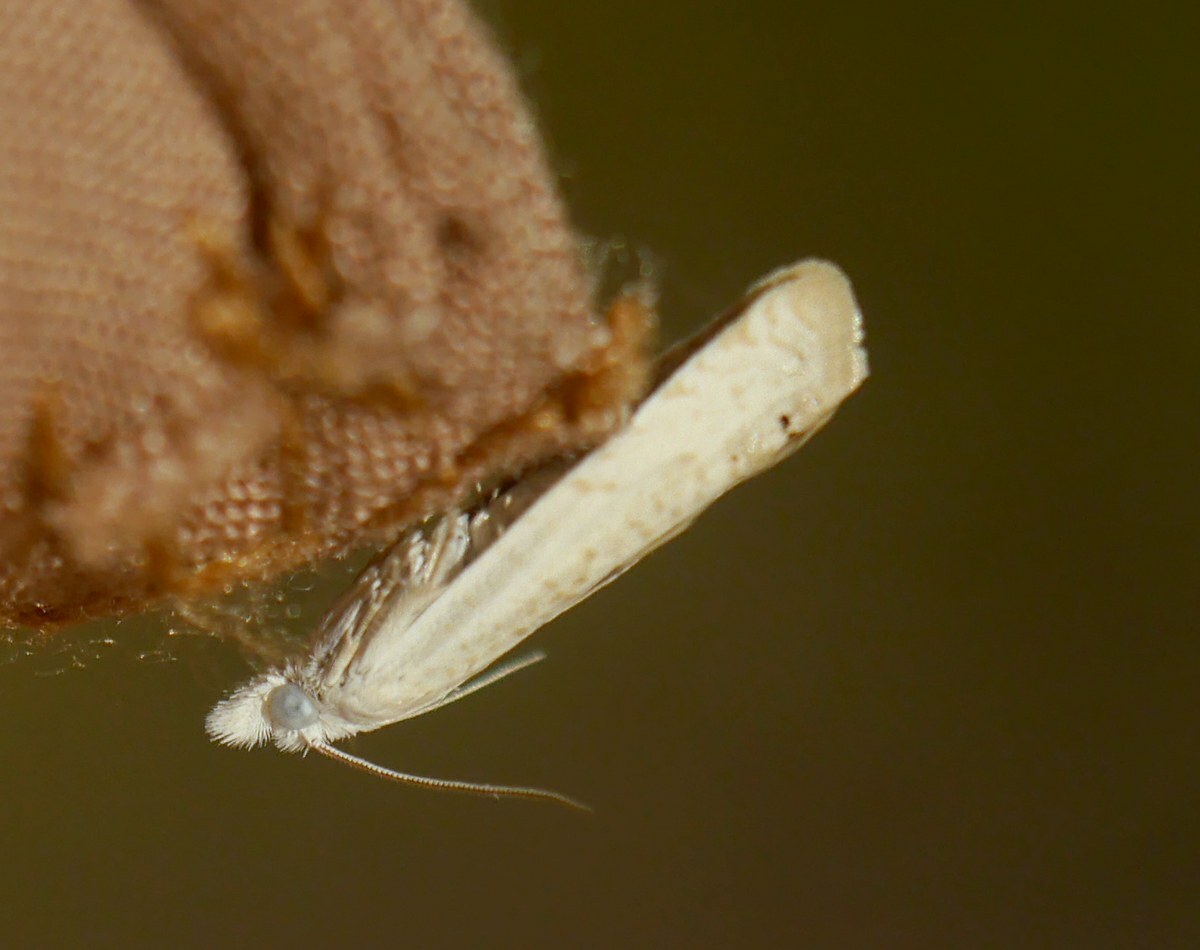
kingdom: Animalia
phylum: Arthropoda
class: Insecta
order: Lepidoptera
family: Tortricidae
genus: Eucosma
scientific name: Eucosma caliacrana
